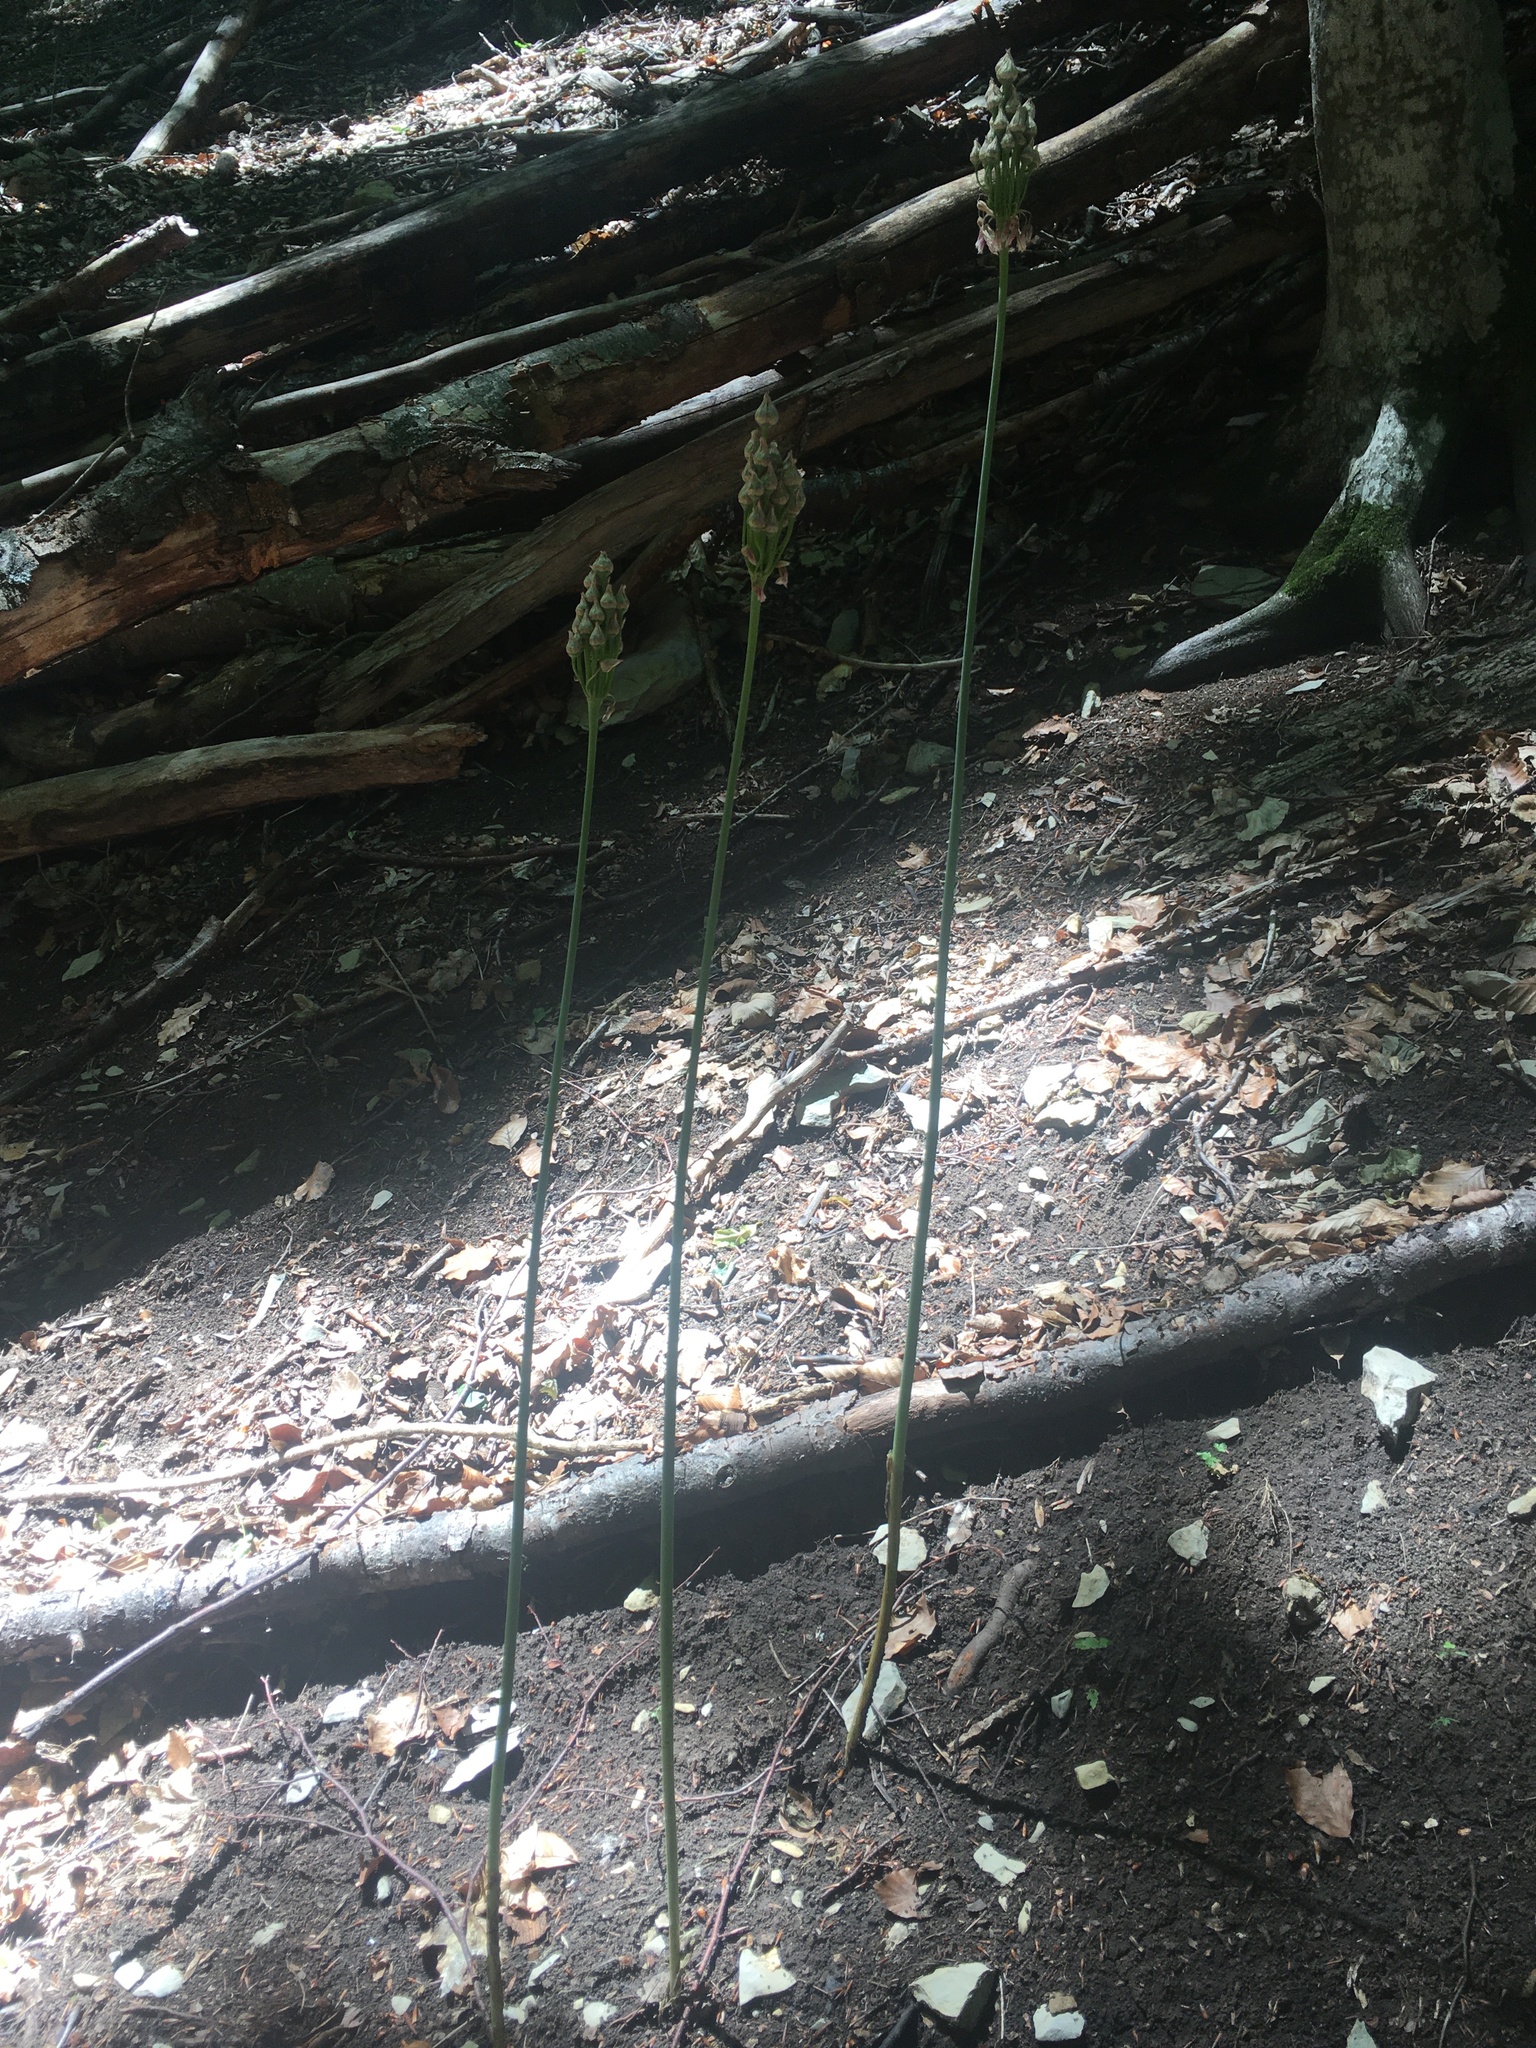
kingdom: Plantae
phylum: Tracheophyta
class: Liliopsida
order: Asparagales
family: Amaryllidaceae
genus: Allium
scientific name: Allium siculum
